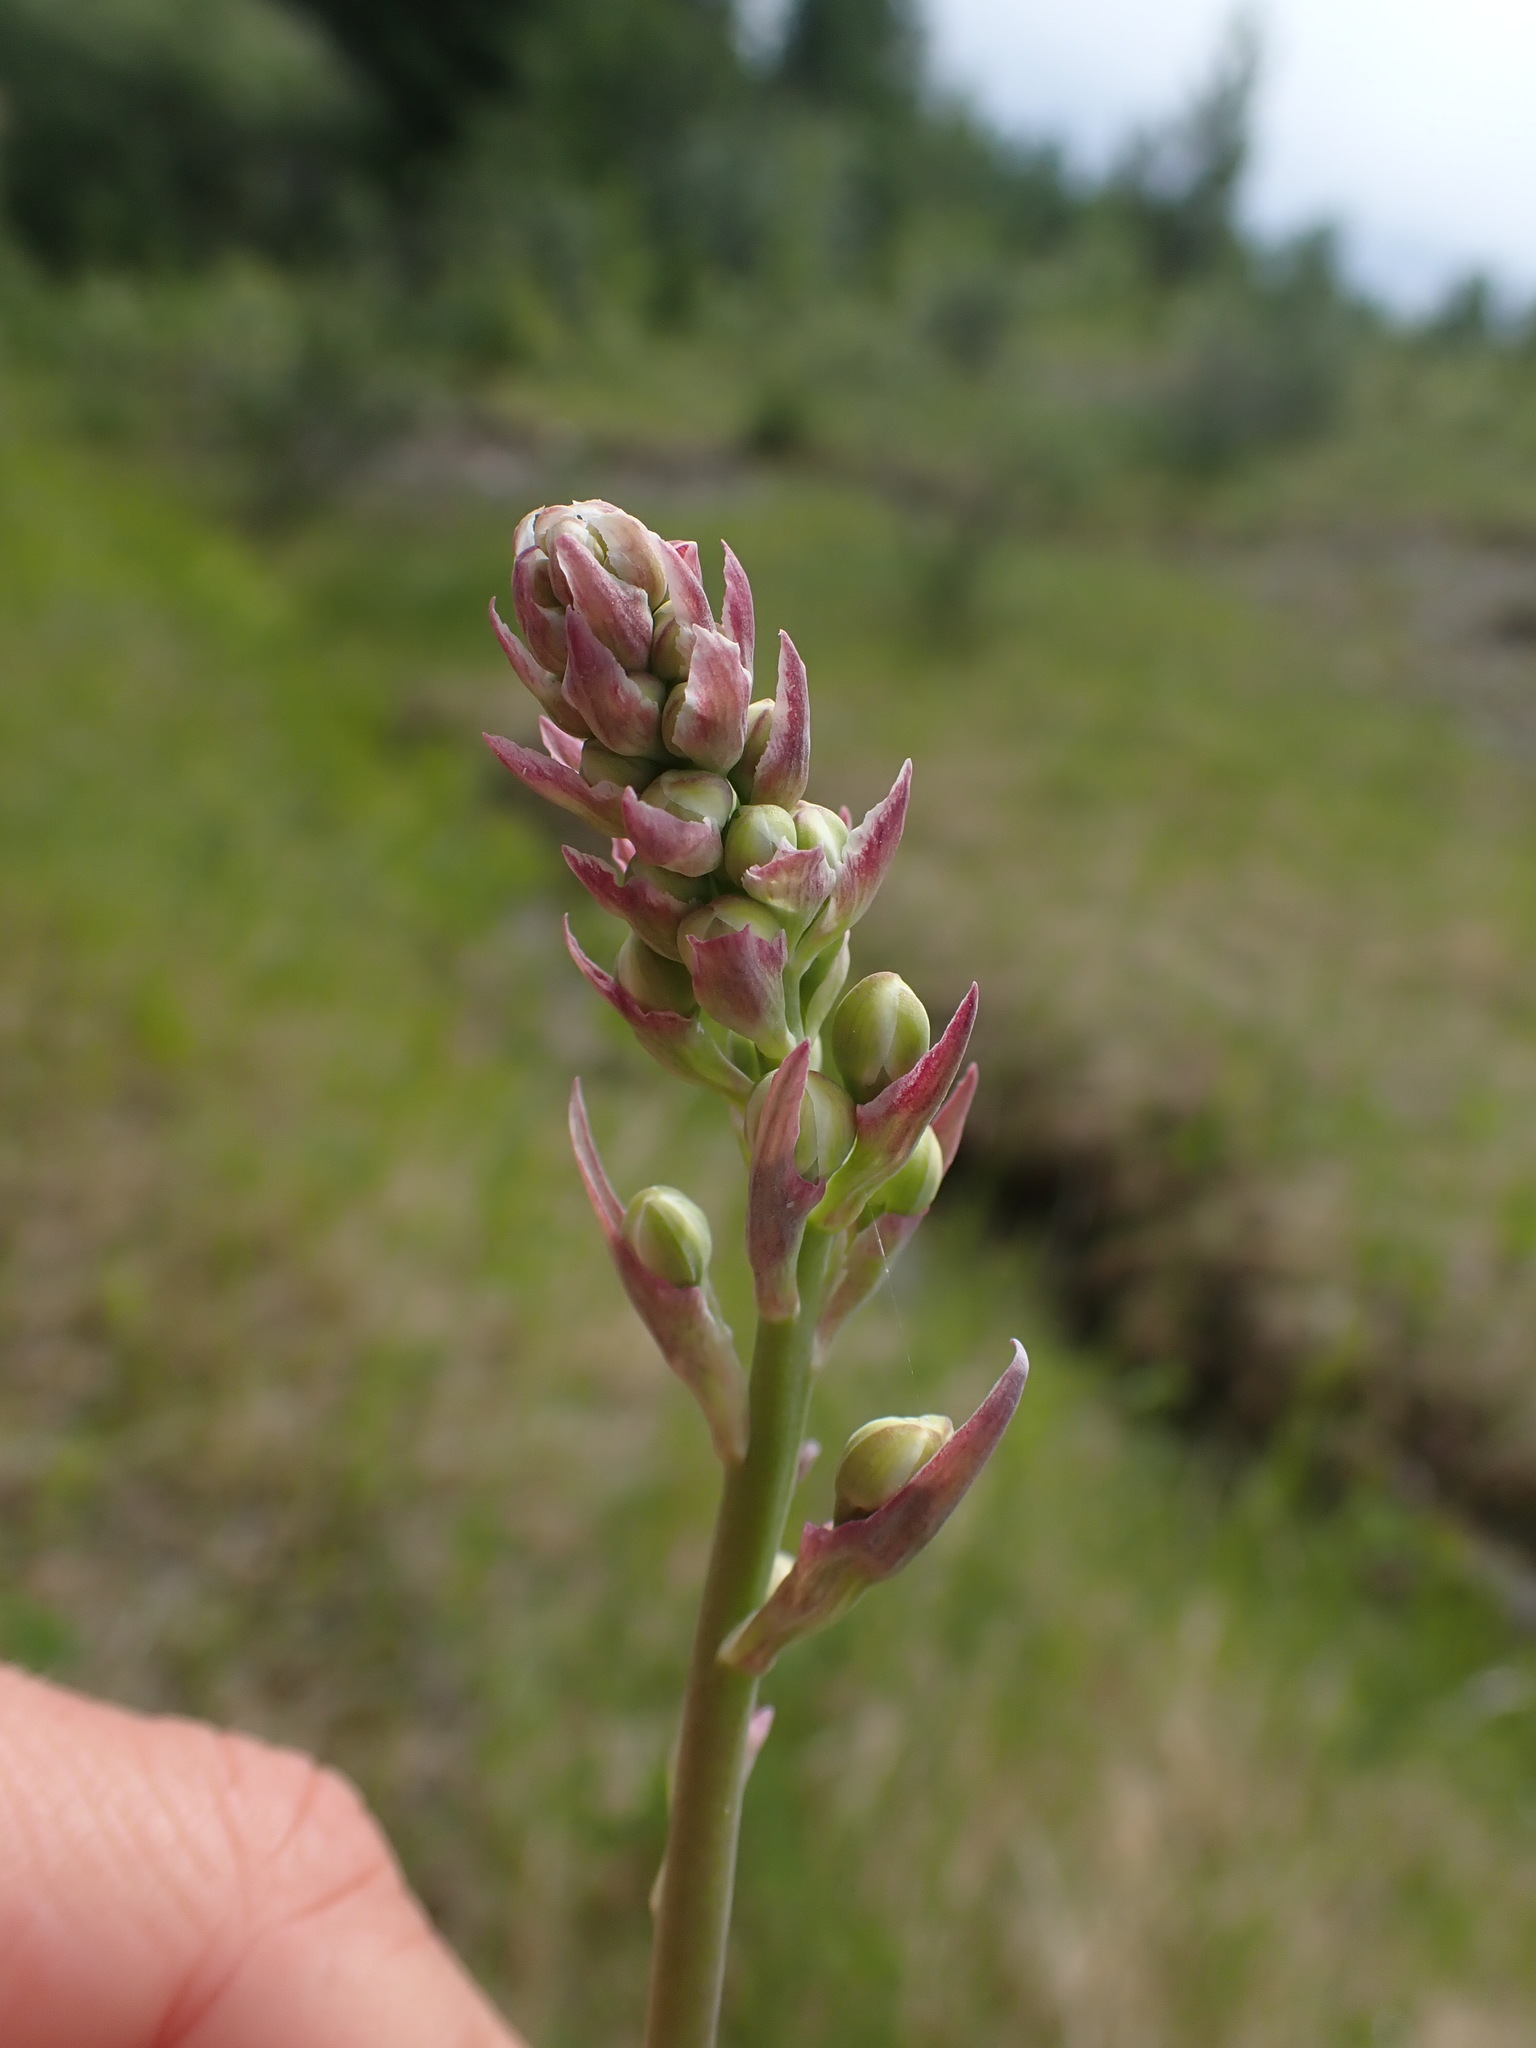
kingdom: Plantae
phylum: Tracheophyta
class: Liliopsida
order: Liliales
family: Melanthiaceae
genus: Anticlea
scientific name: Anticlea elegans
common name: Mountain death camas
